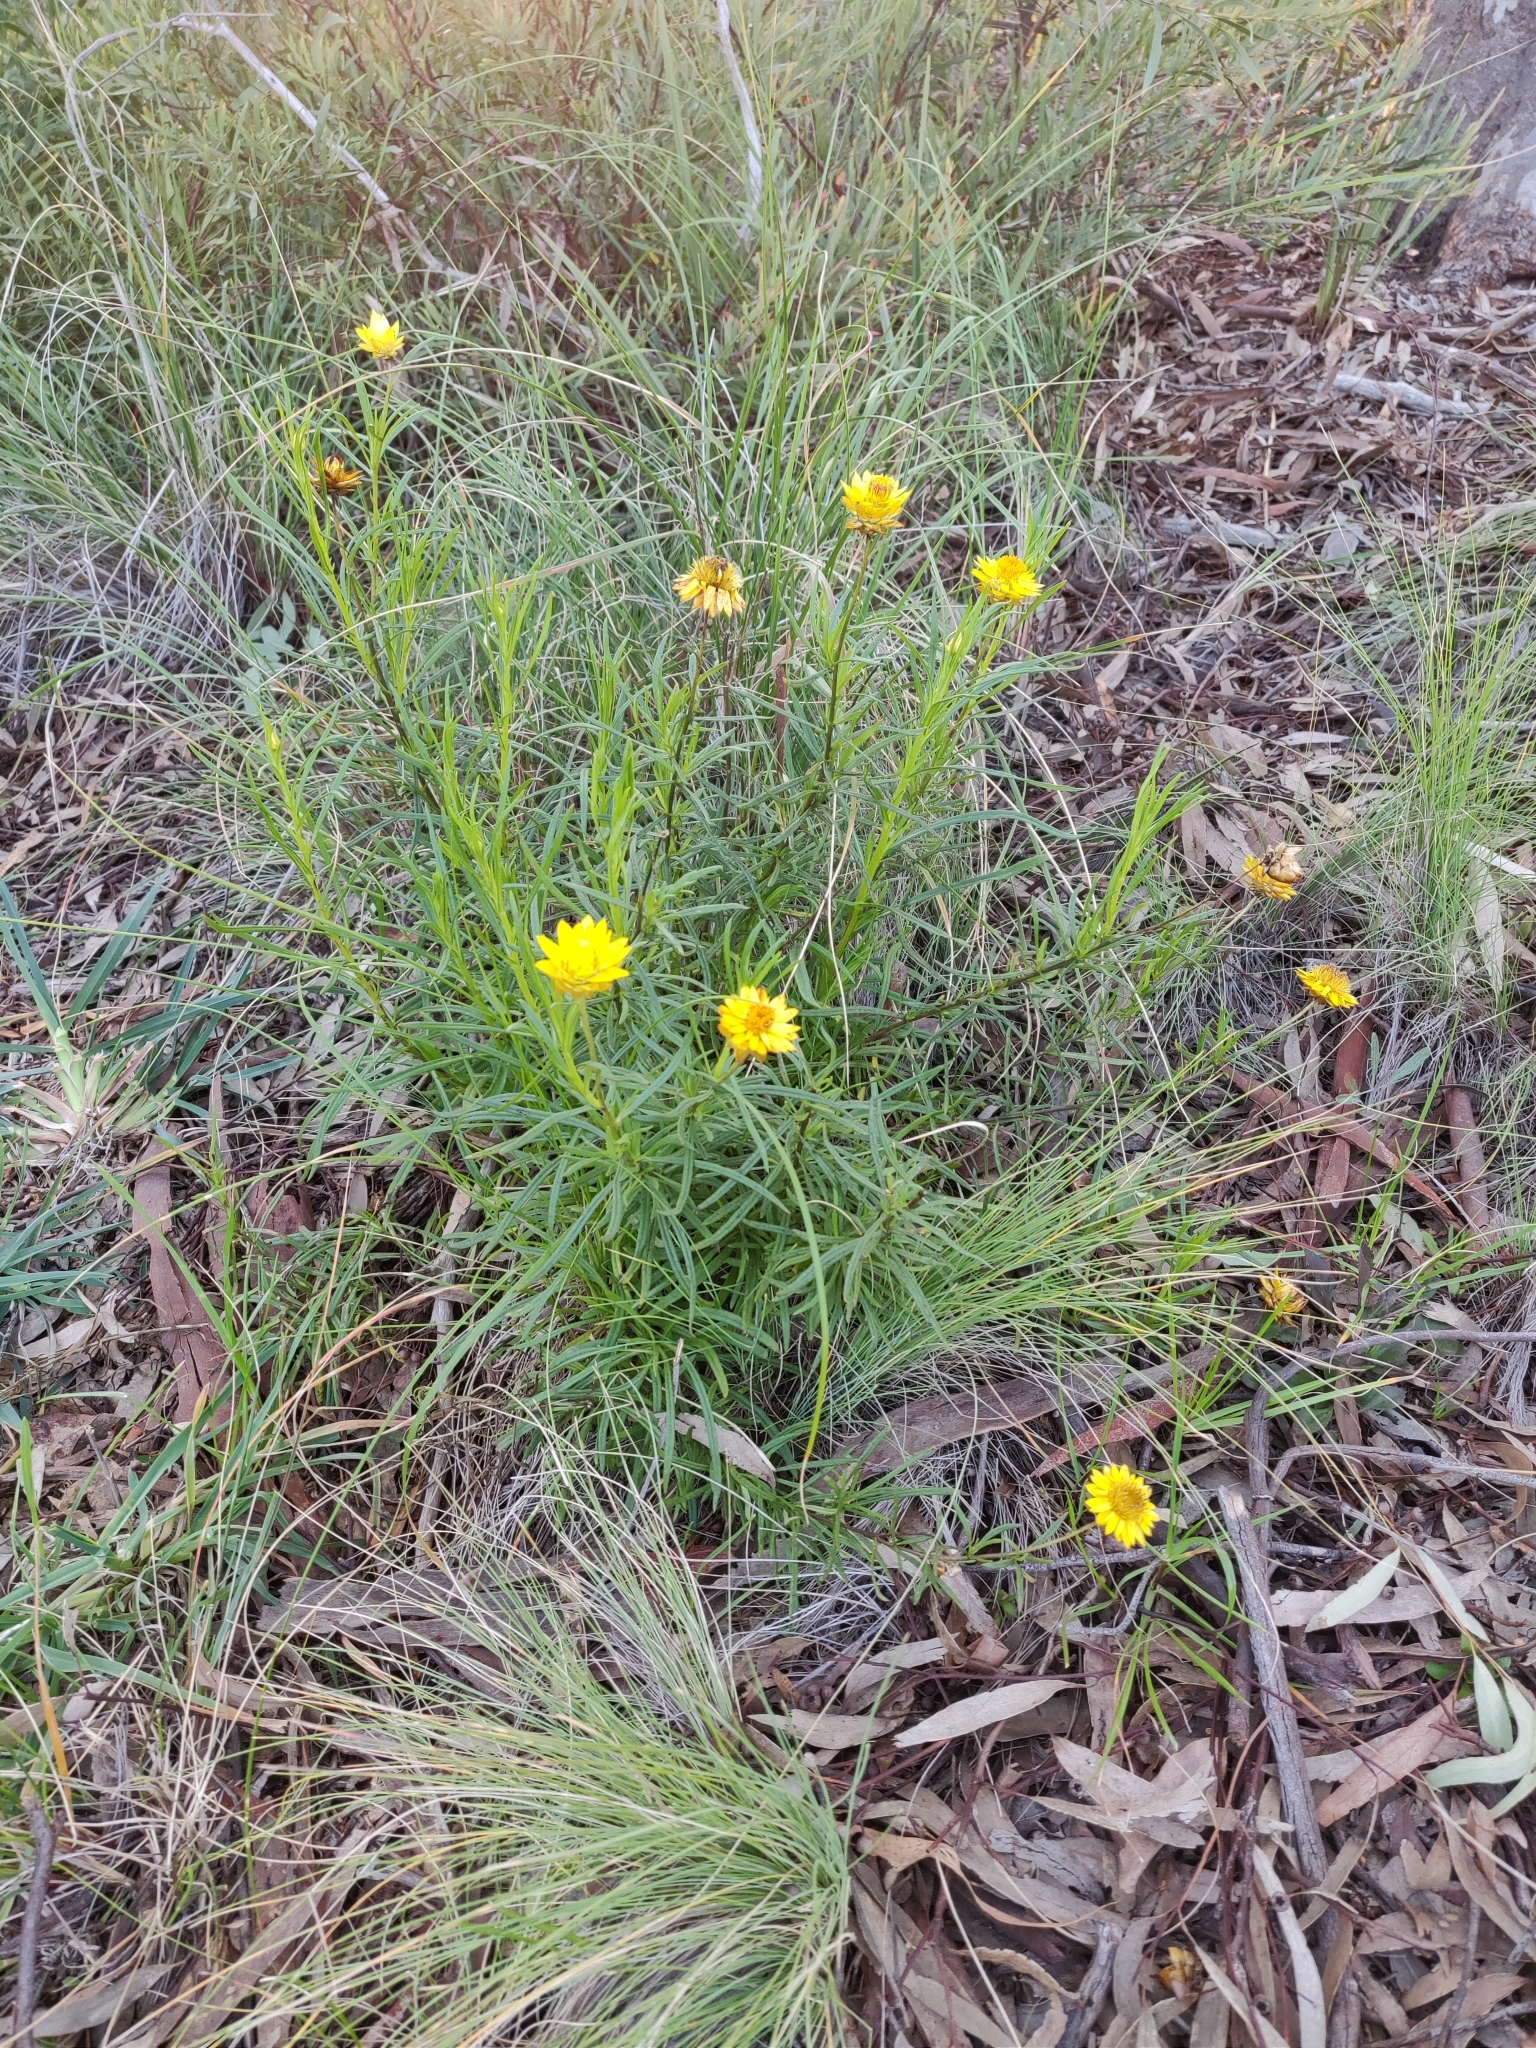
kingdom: Plantae
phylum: Tracheophyta
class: Magnoliopsida
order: Asterales
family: Asteraceae
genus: Xerochrysum
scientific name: Xerochrysum viscosum
